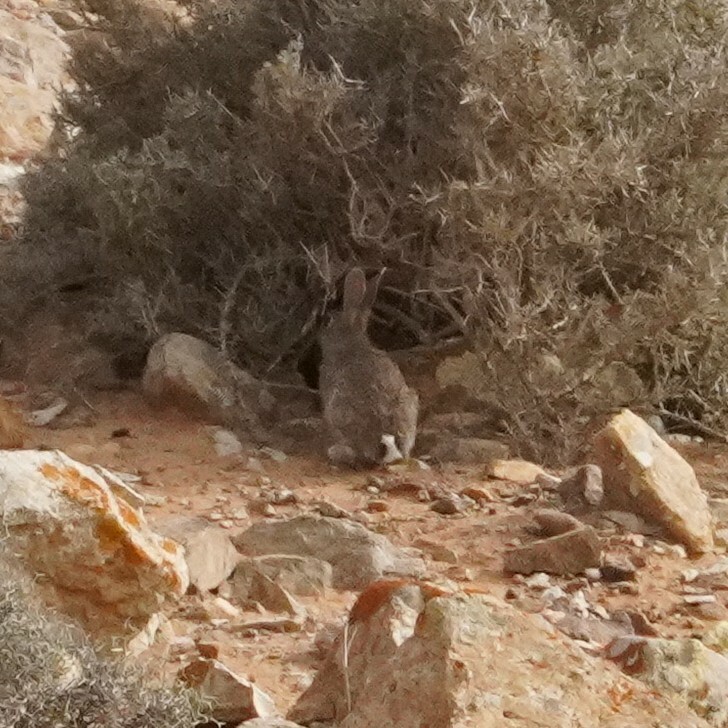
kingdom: Animalia
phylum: Chordata
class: Mammalia
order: Lagomorpha
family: Leporidae
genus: Oryctolagus
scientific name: Oryctolagus cuniculus
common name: European rabbit
